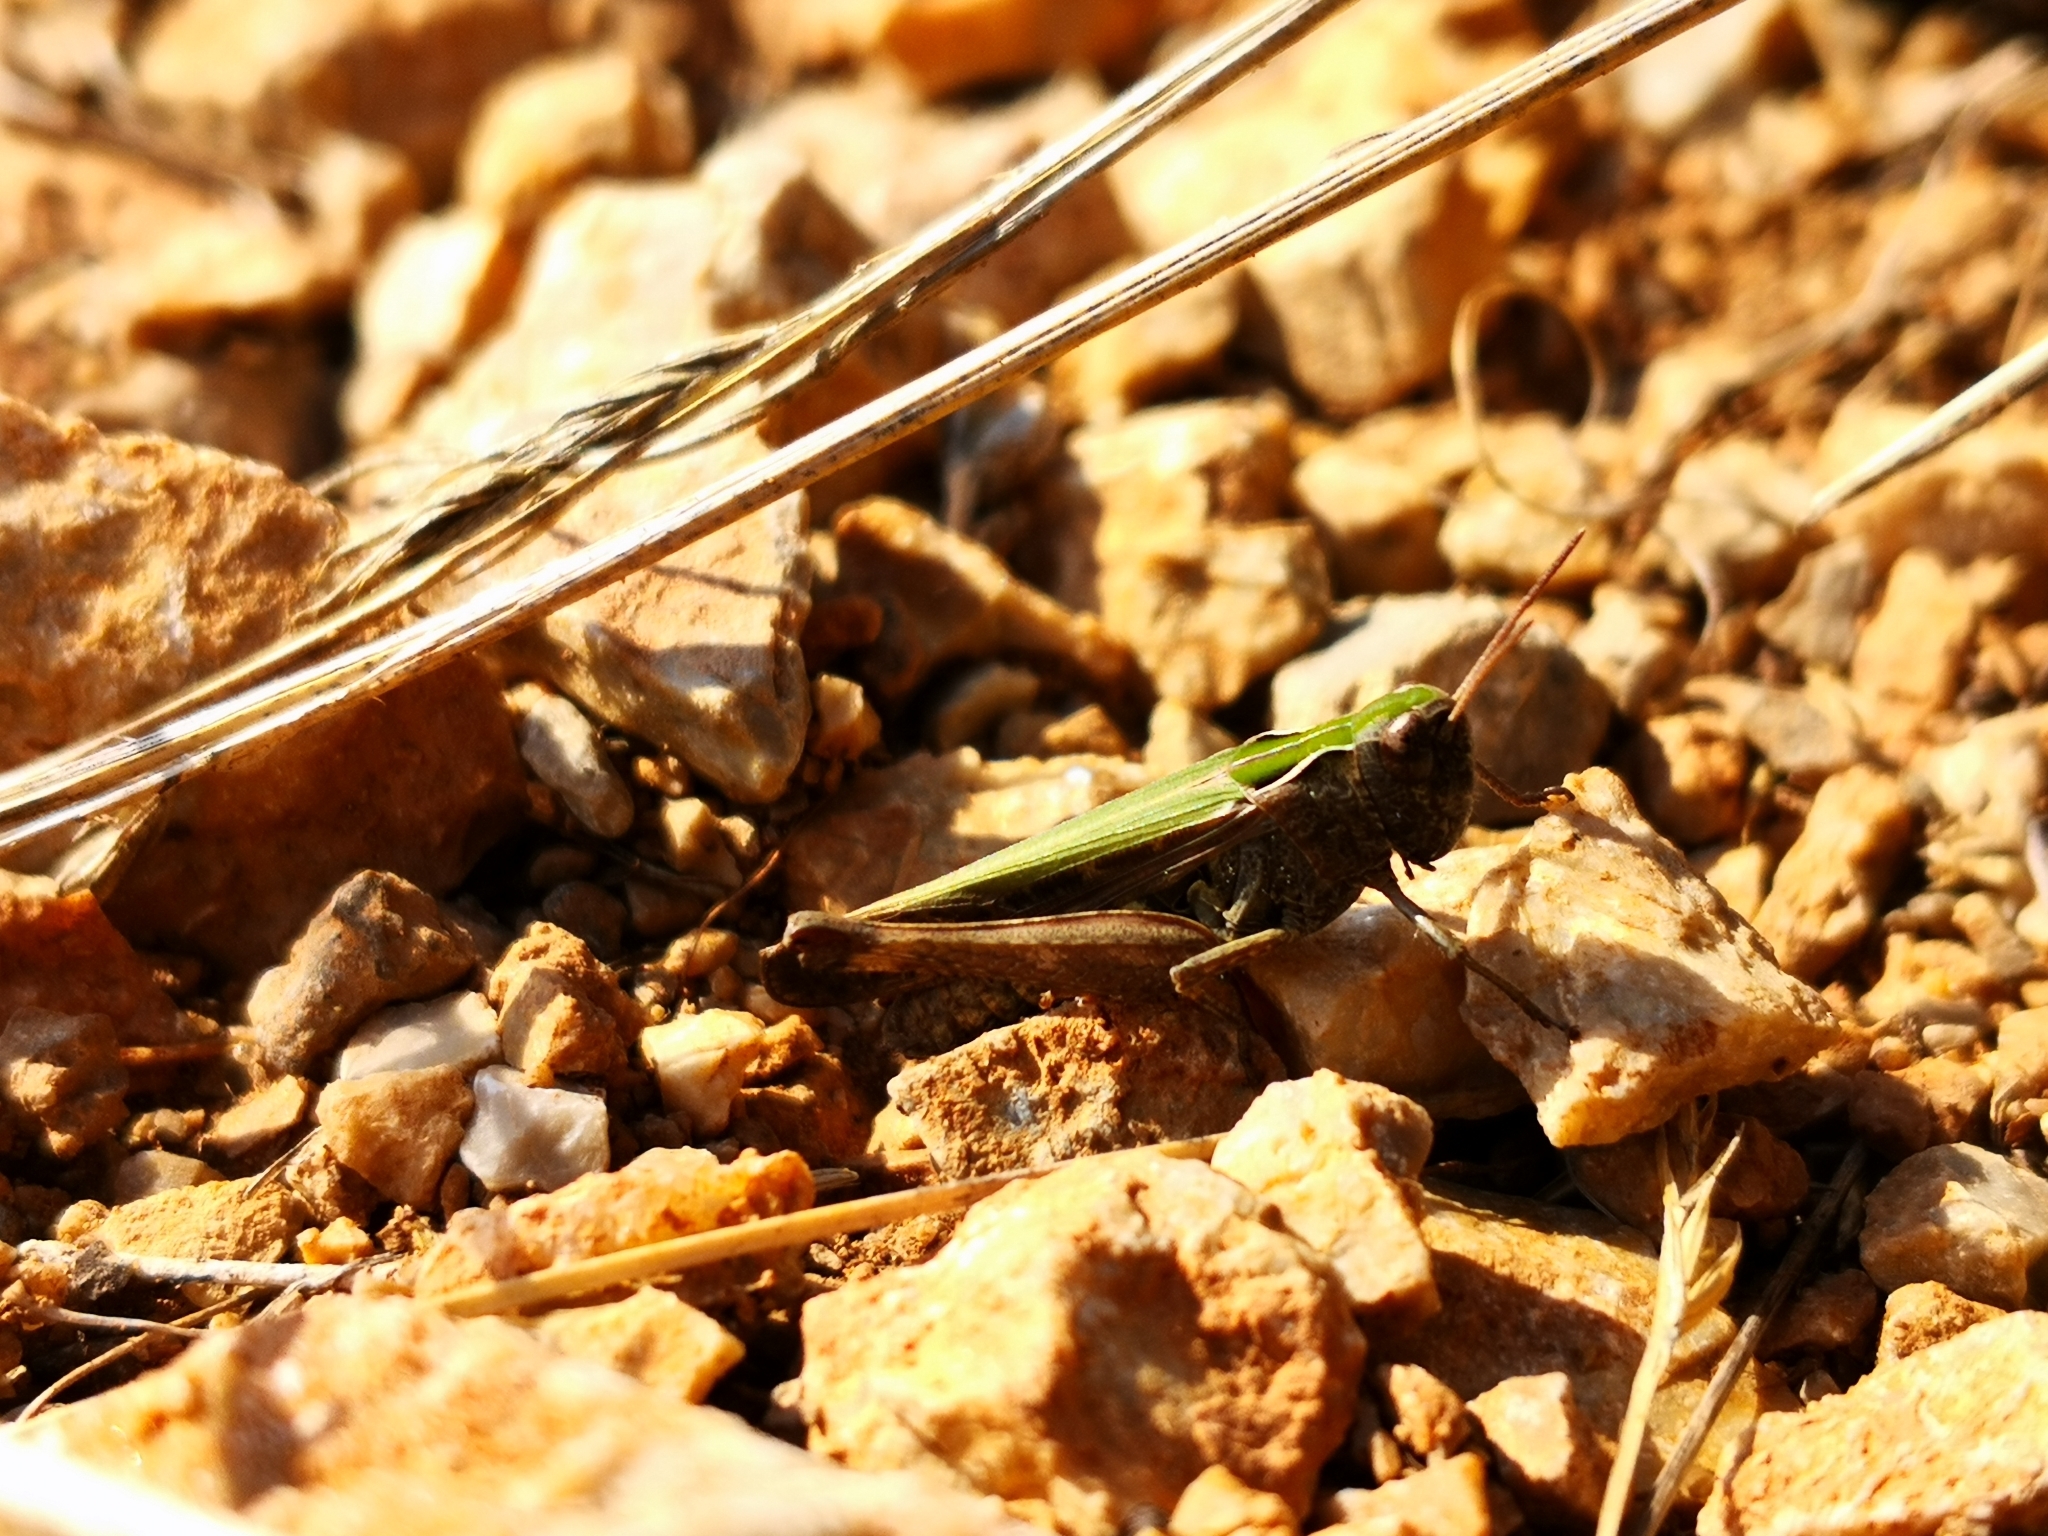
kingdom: Animalia
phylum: Arthropoda
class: Insecta
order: Orthoptera
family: Acrididae
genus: Omocestus
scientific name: Omocestus rufipes
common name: Woodland grasshopper
